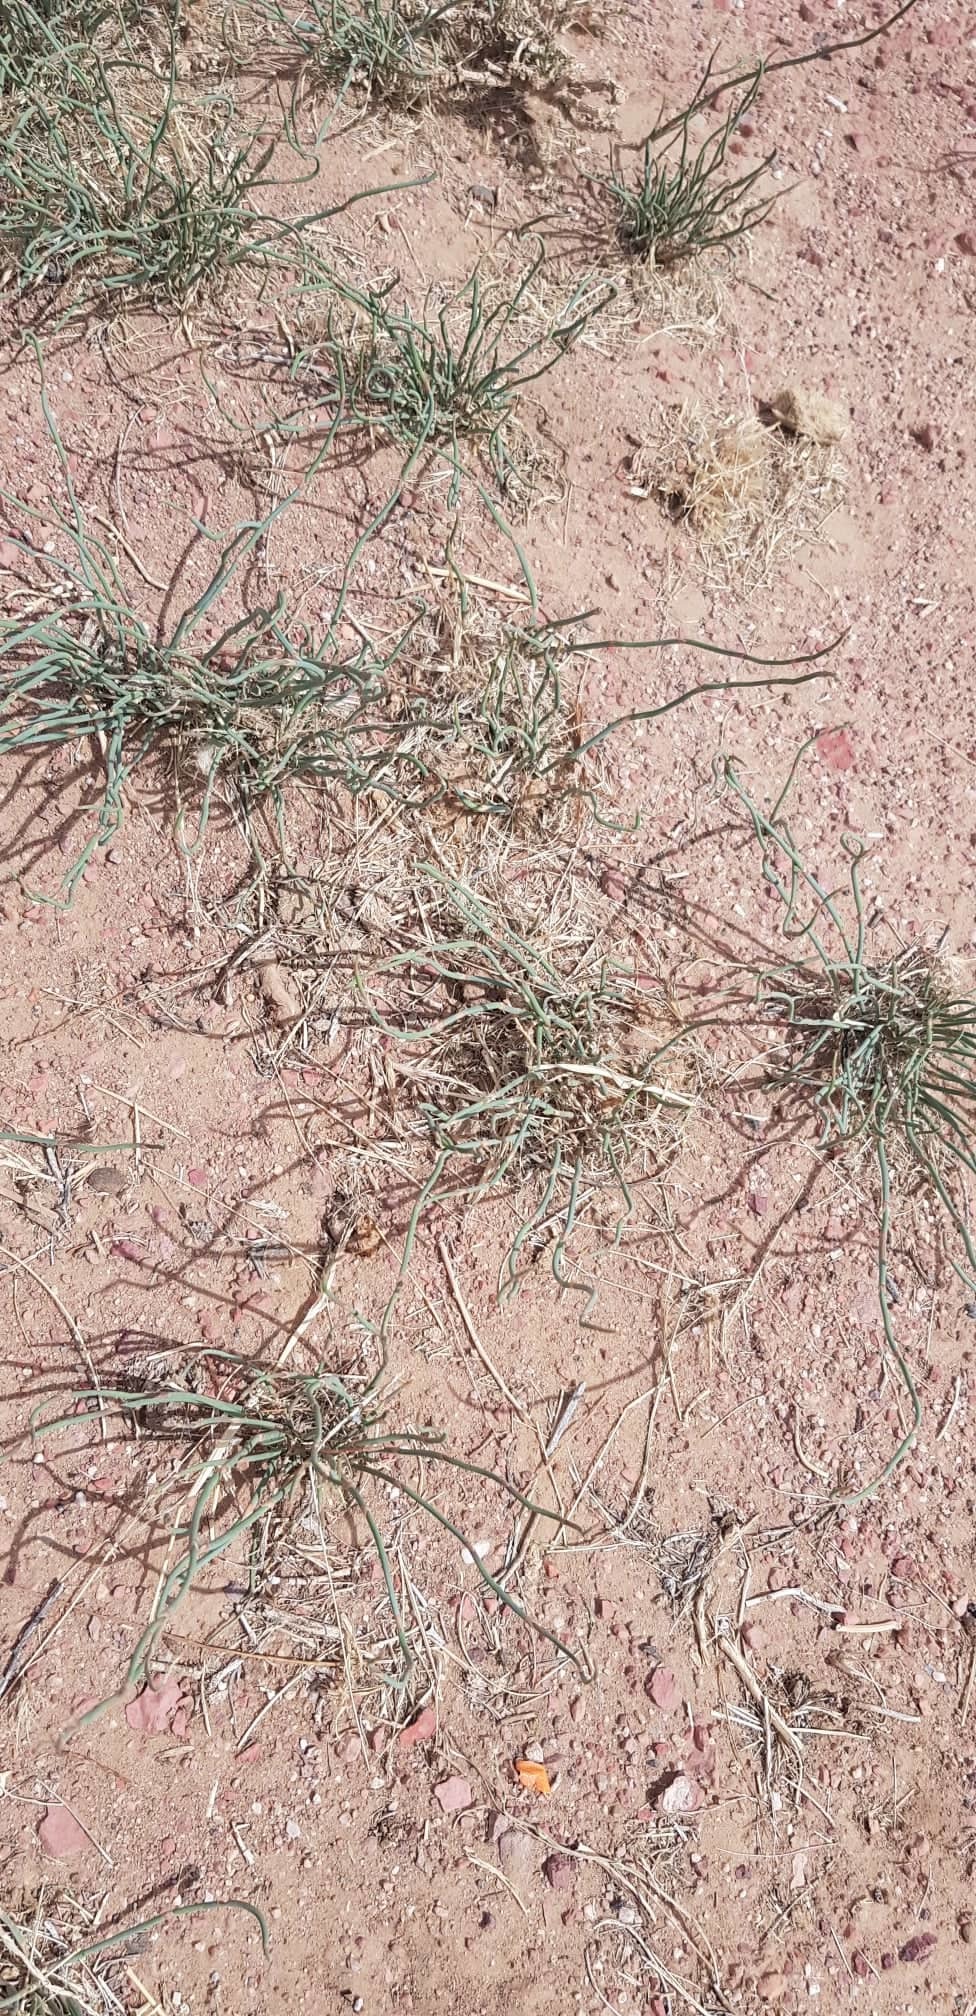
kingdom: Plantae
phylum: Tracheophyta
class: Gnetopsida
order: Ephedrales
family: Ephedraceae
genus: Ephedra
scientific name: Ephedra monosperma
